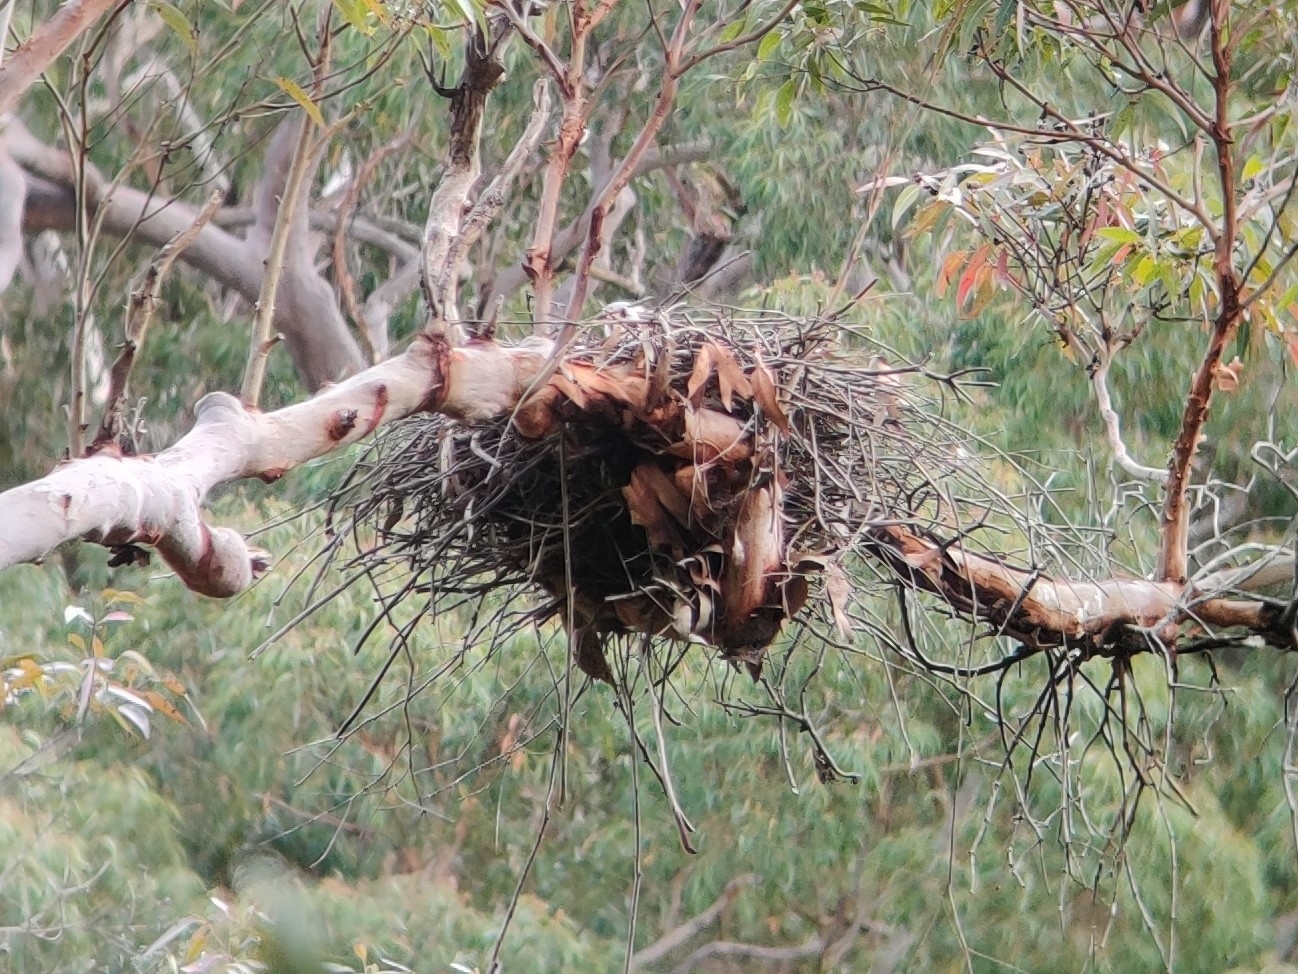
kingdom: Animalia
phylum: Chordata
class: Aves
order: Accipitriformes
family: Accipitridae
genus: Accipiter
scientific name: Accipiter novaehollandiae
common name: Grey goshawk
